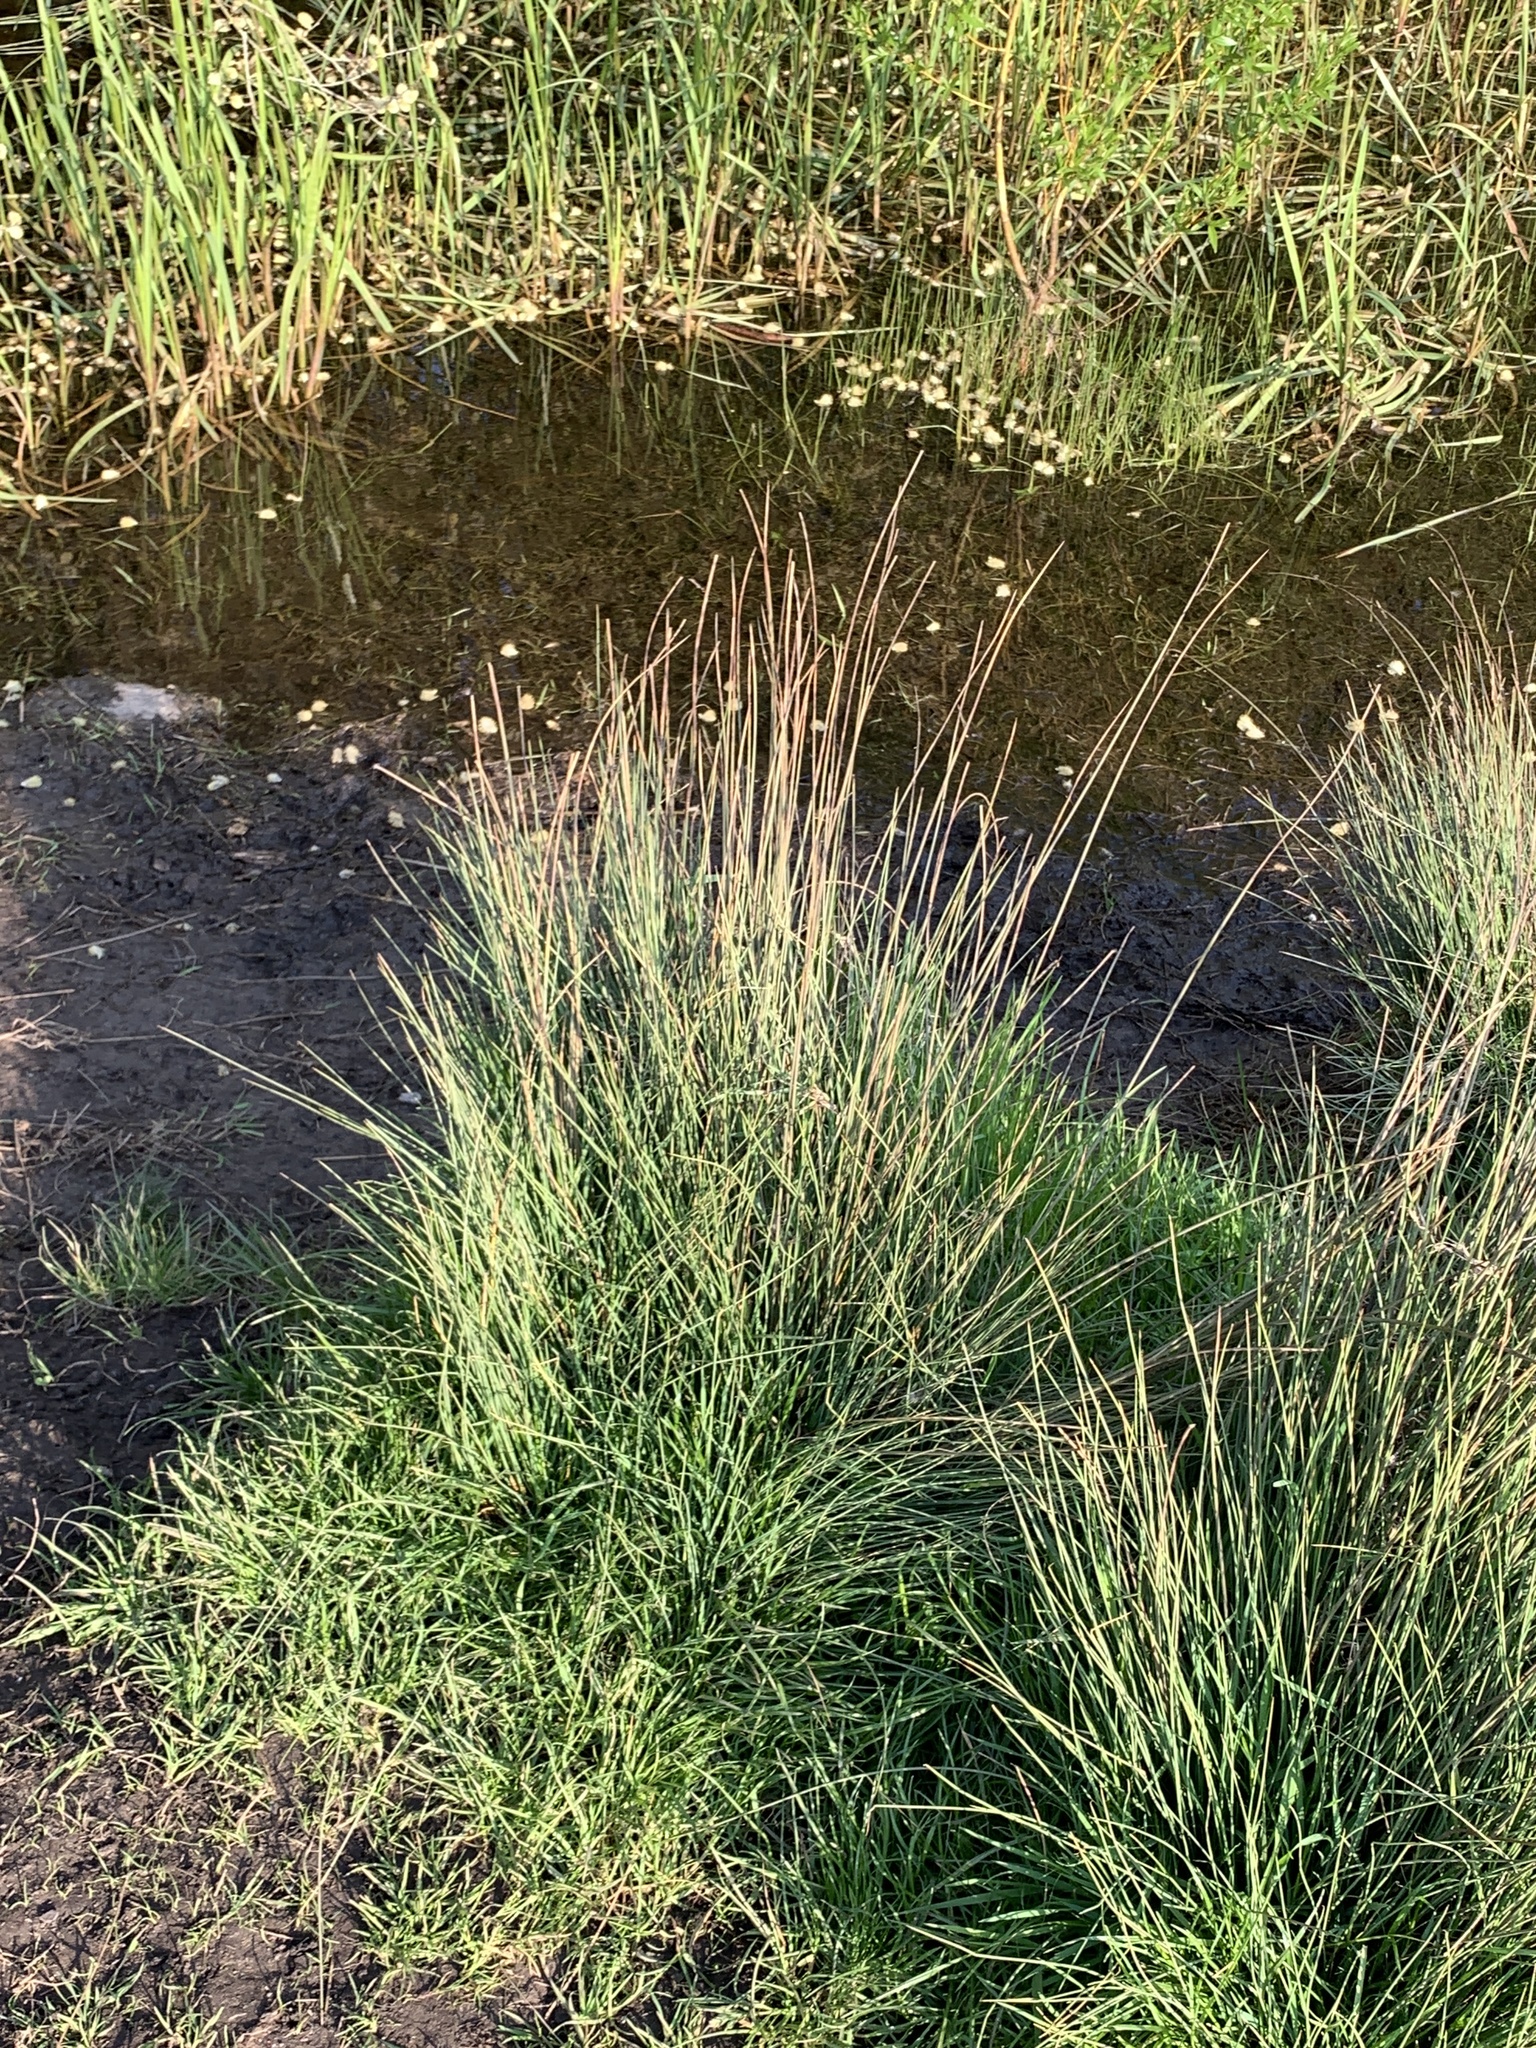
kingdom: Plantae
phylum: Tracheophyta
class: Liliopsida
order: Poales
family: Juncaceae
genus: Juncus
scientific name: Juncus inflexus
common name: Hard rush
